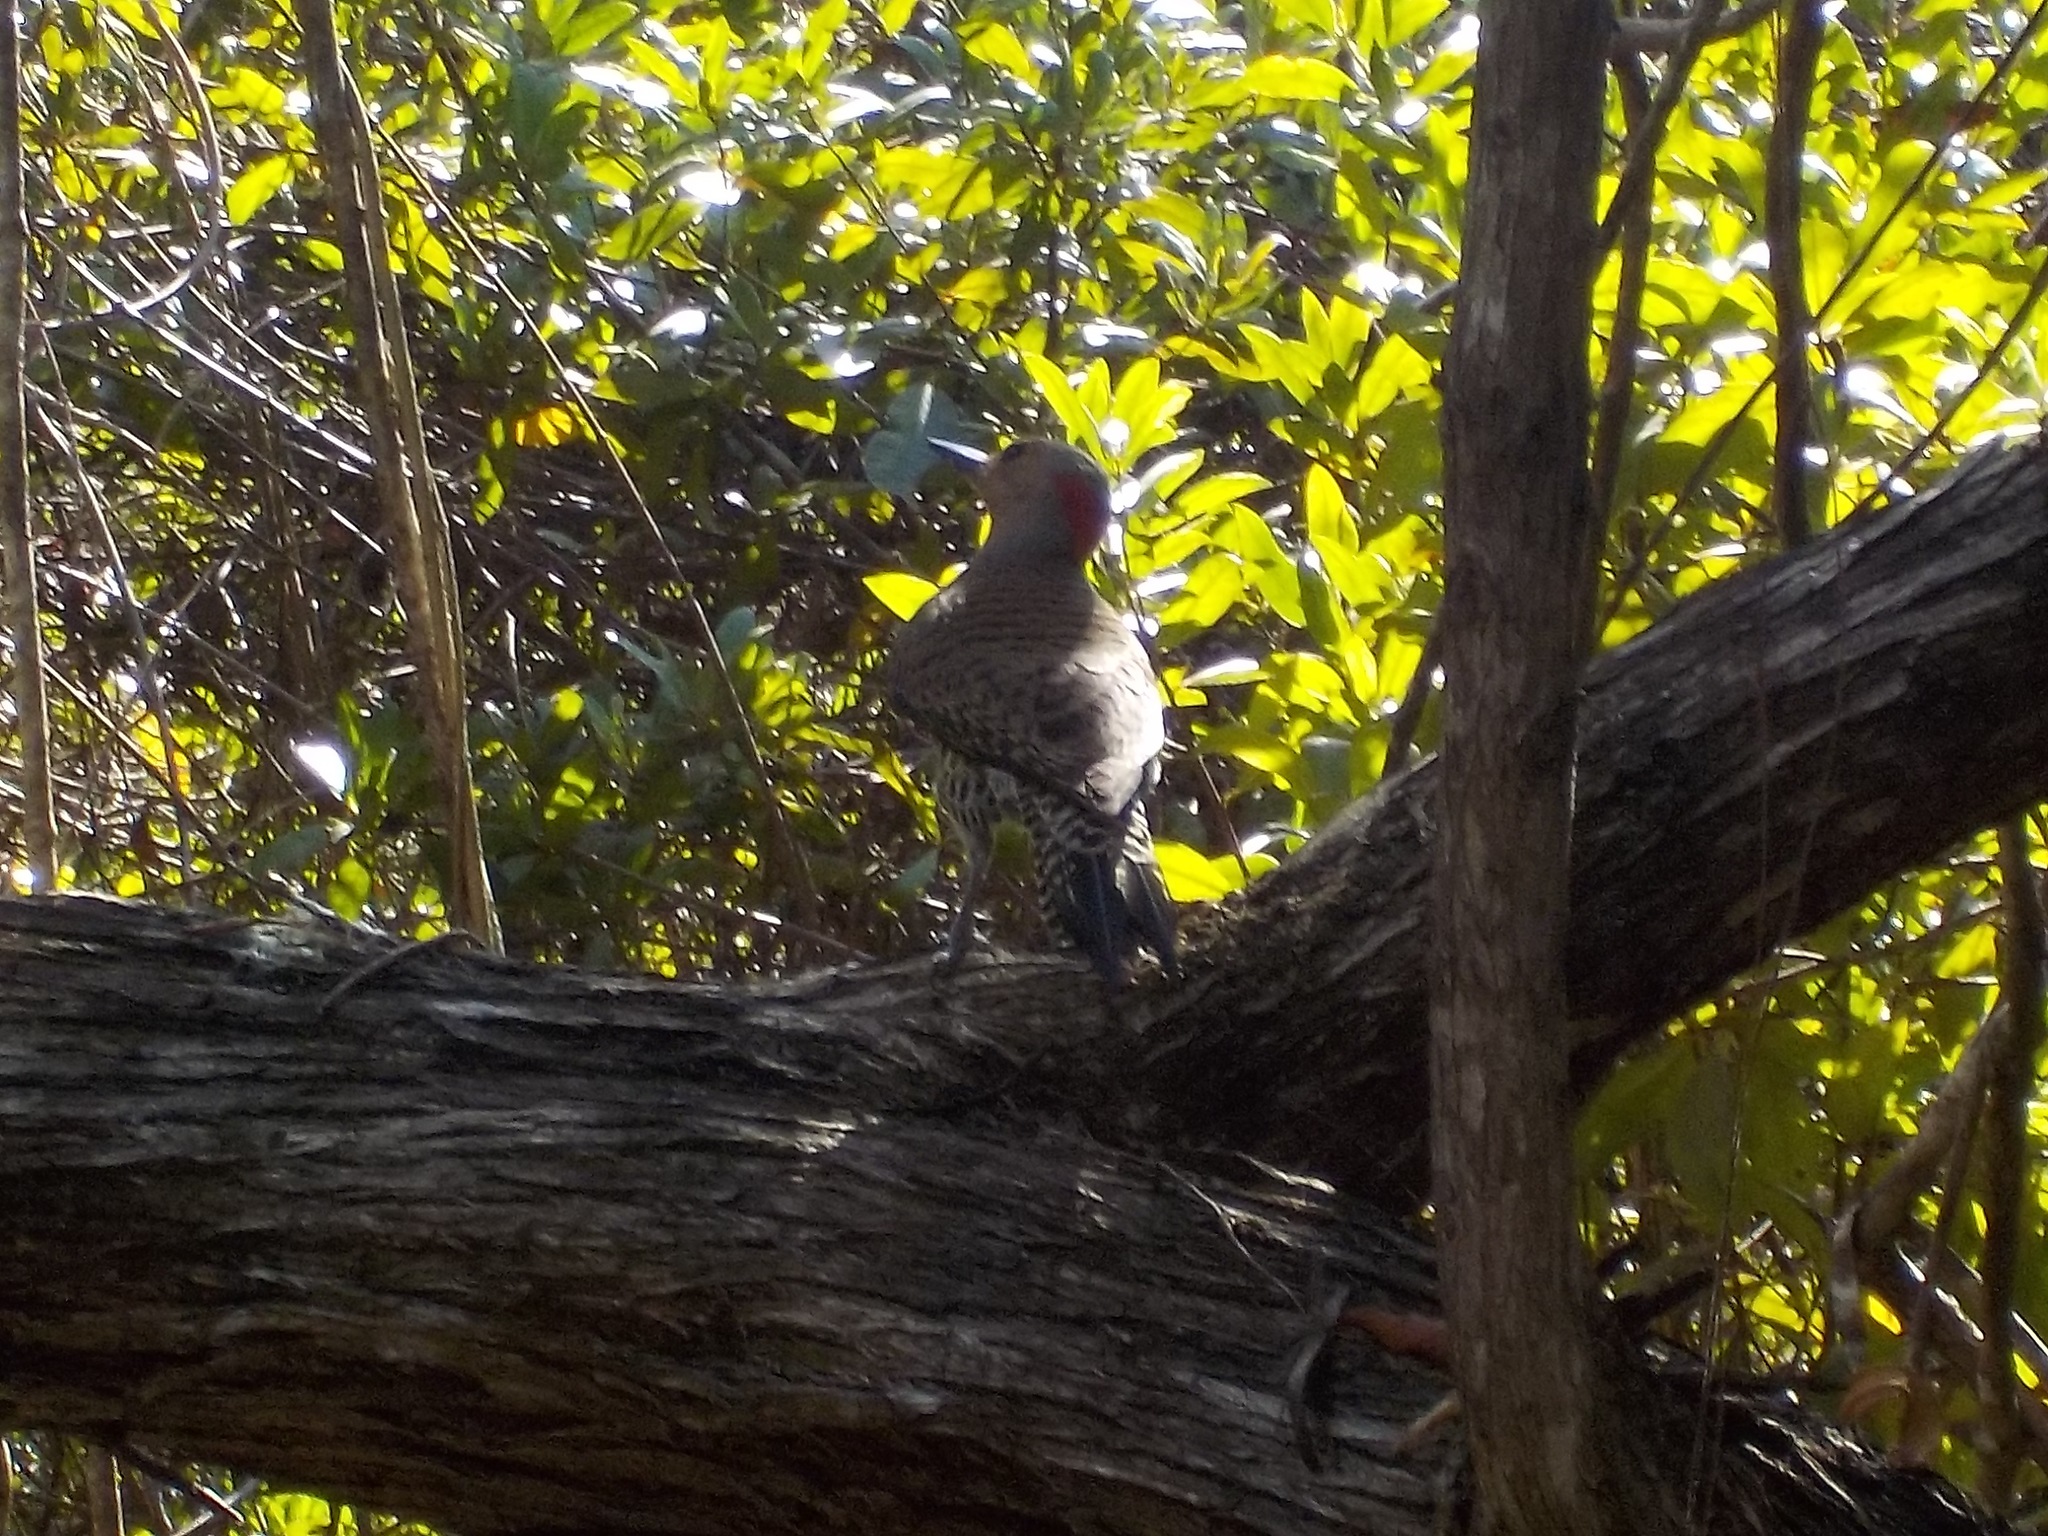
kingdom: Animalia
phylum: Chordata
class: Aves
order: Piciformes
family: Picidae
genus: Colaptes
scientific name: Colaptes auratus
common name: Northern flicker
